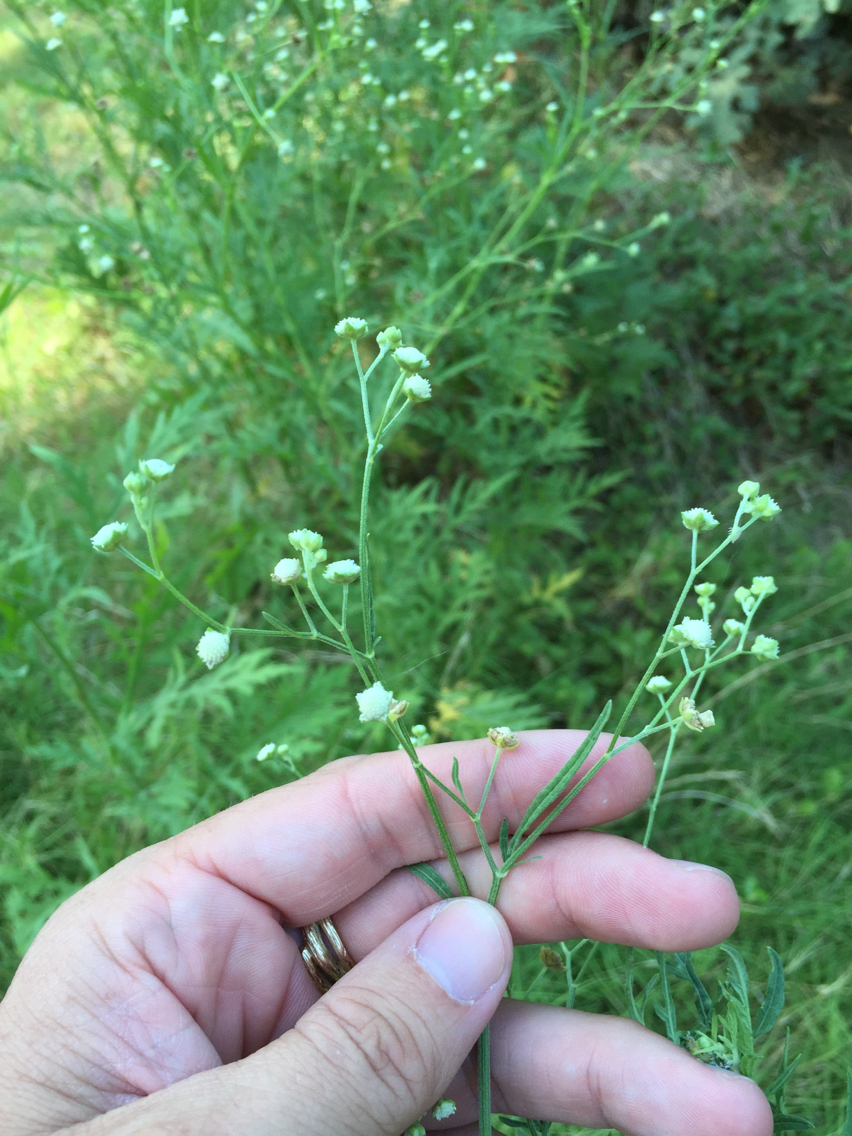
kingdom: Plantae
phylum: Tracheophyta
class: Magnoliopsida
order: Asterales
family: Asteraceae
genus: Parthenium
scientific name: Parthenium hysterophorus
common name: Santa maria feverfew
